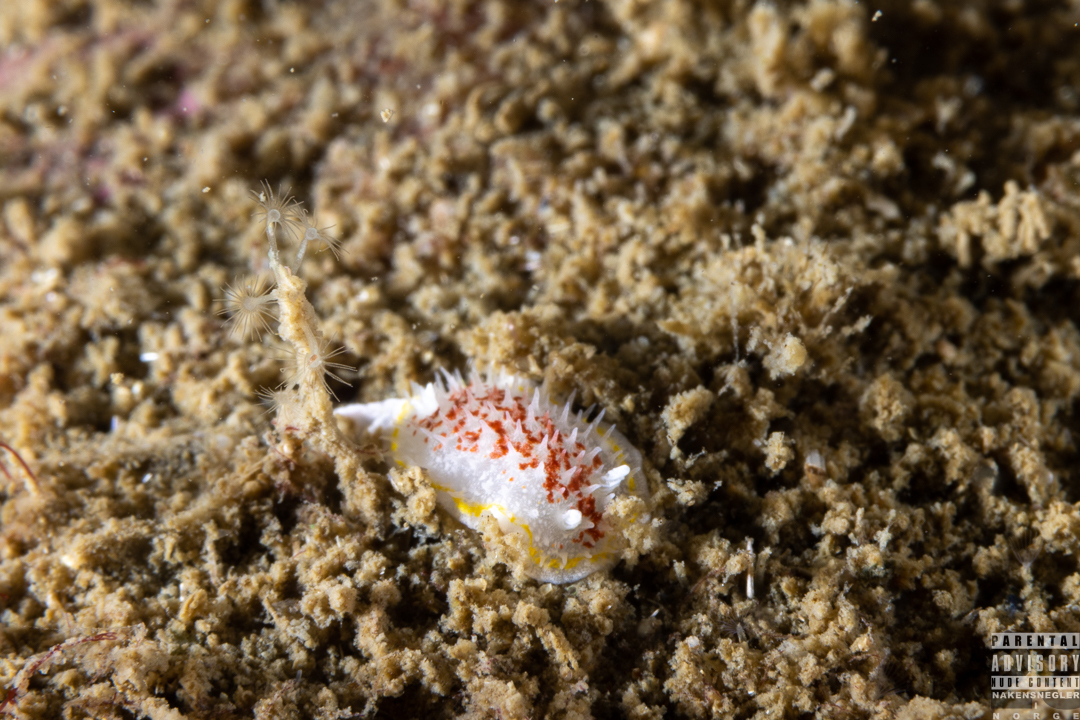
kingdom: Animalia
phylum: Mollusca
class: Gastropoda
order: Nudibranchia
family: Calycidorididae
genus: Diaphorodoris
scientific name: Diaphorodoris luteocincta
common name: Fried egg nudibranch
